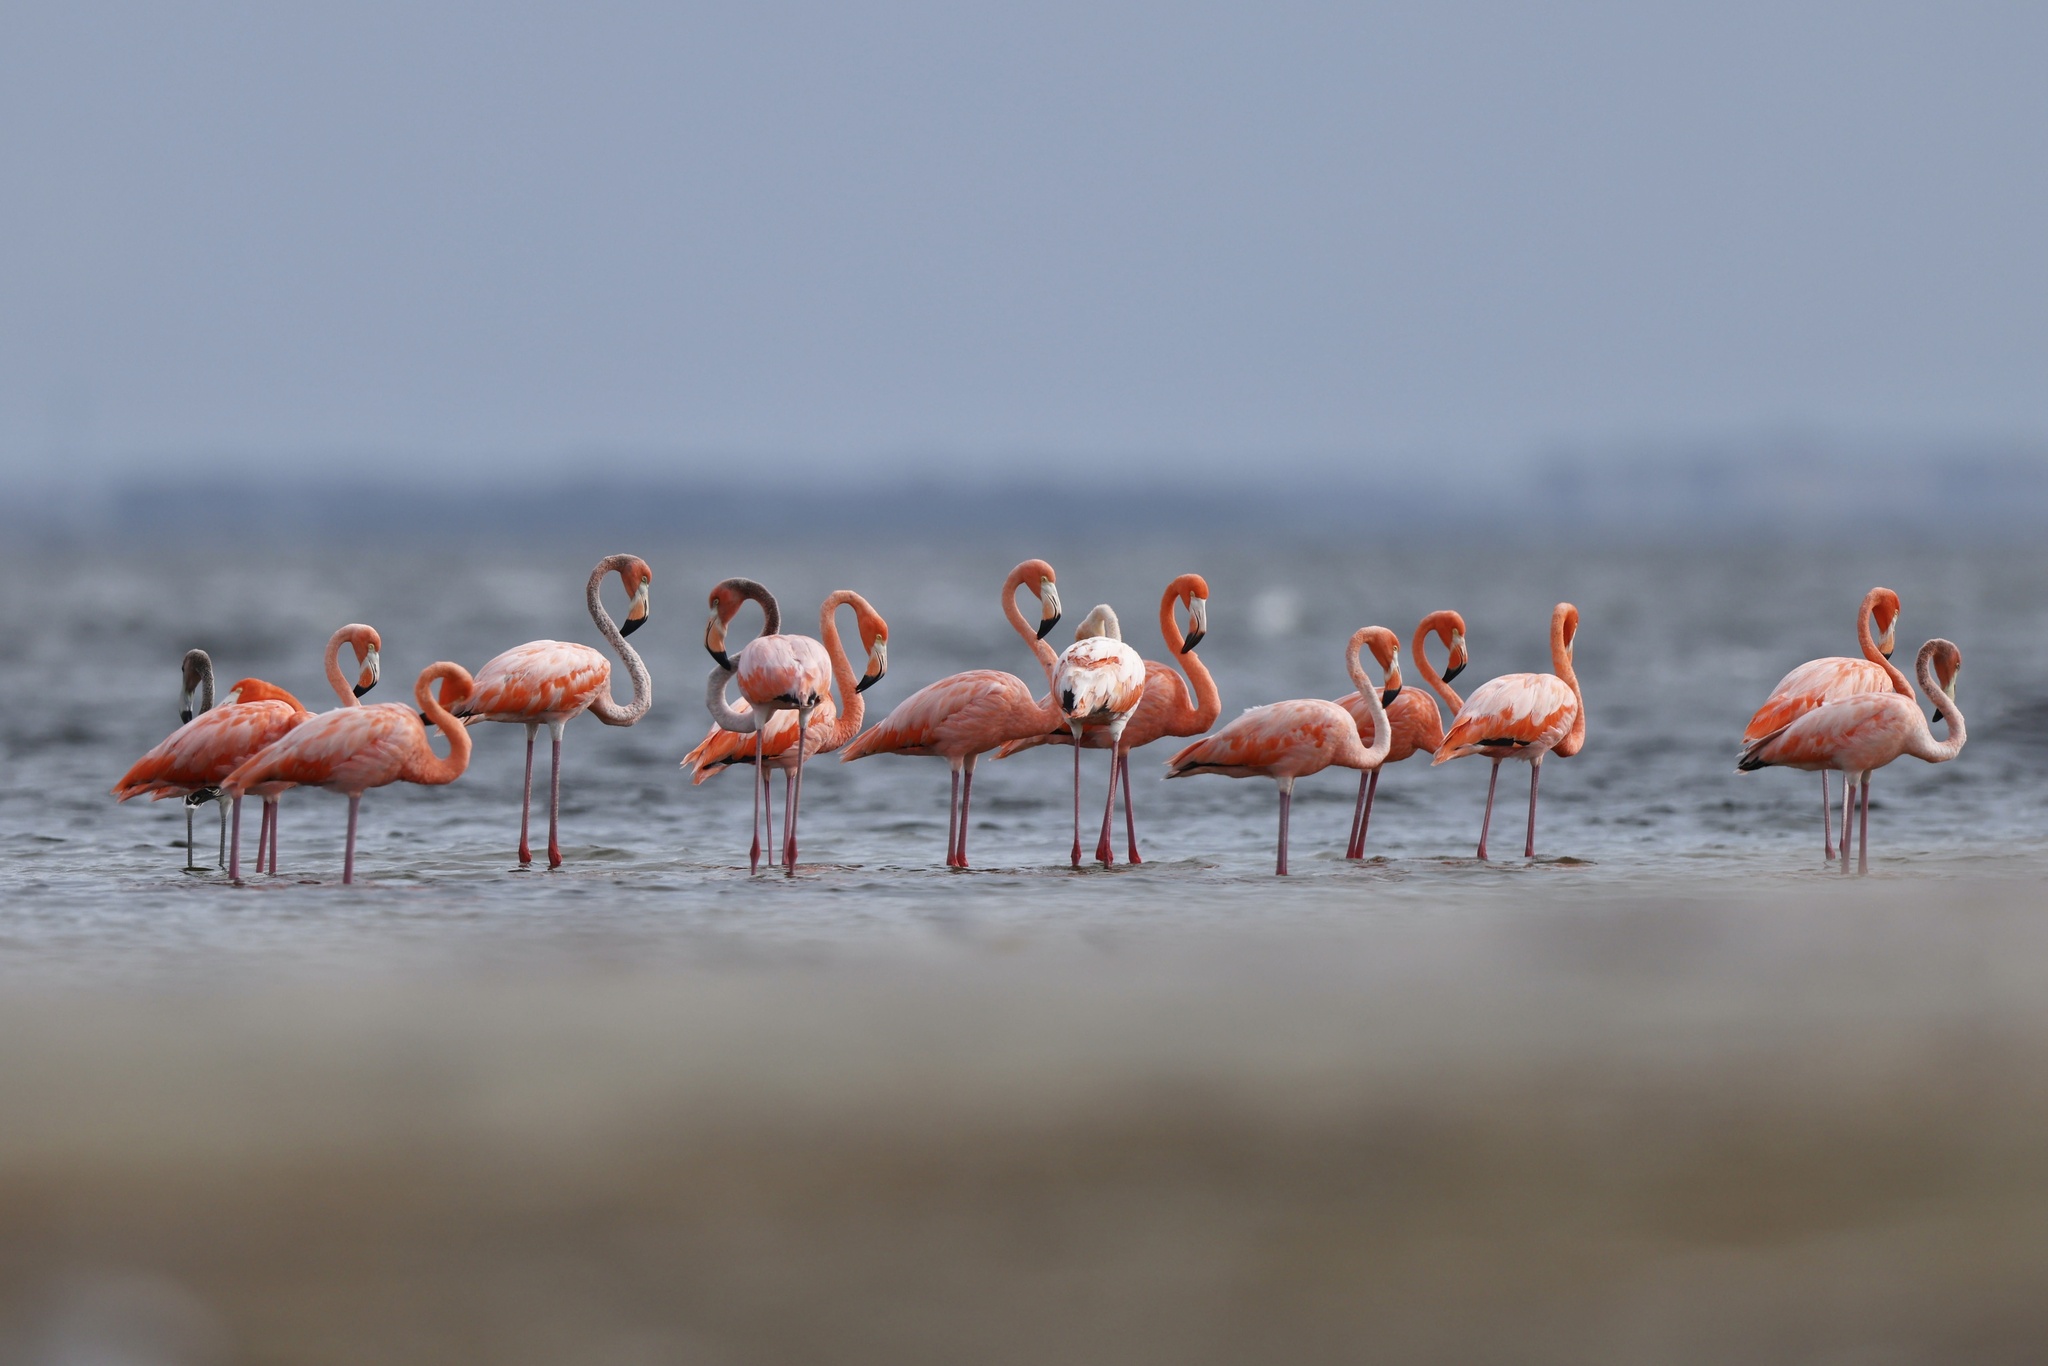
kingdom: Animalia
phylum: Chordata
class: Aves
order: Phoenicopteriformes
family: Phoenicopteridae
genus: Phoenicopterus
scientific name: Phoenicopterus ruber
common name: American flamingo
